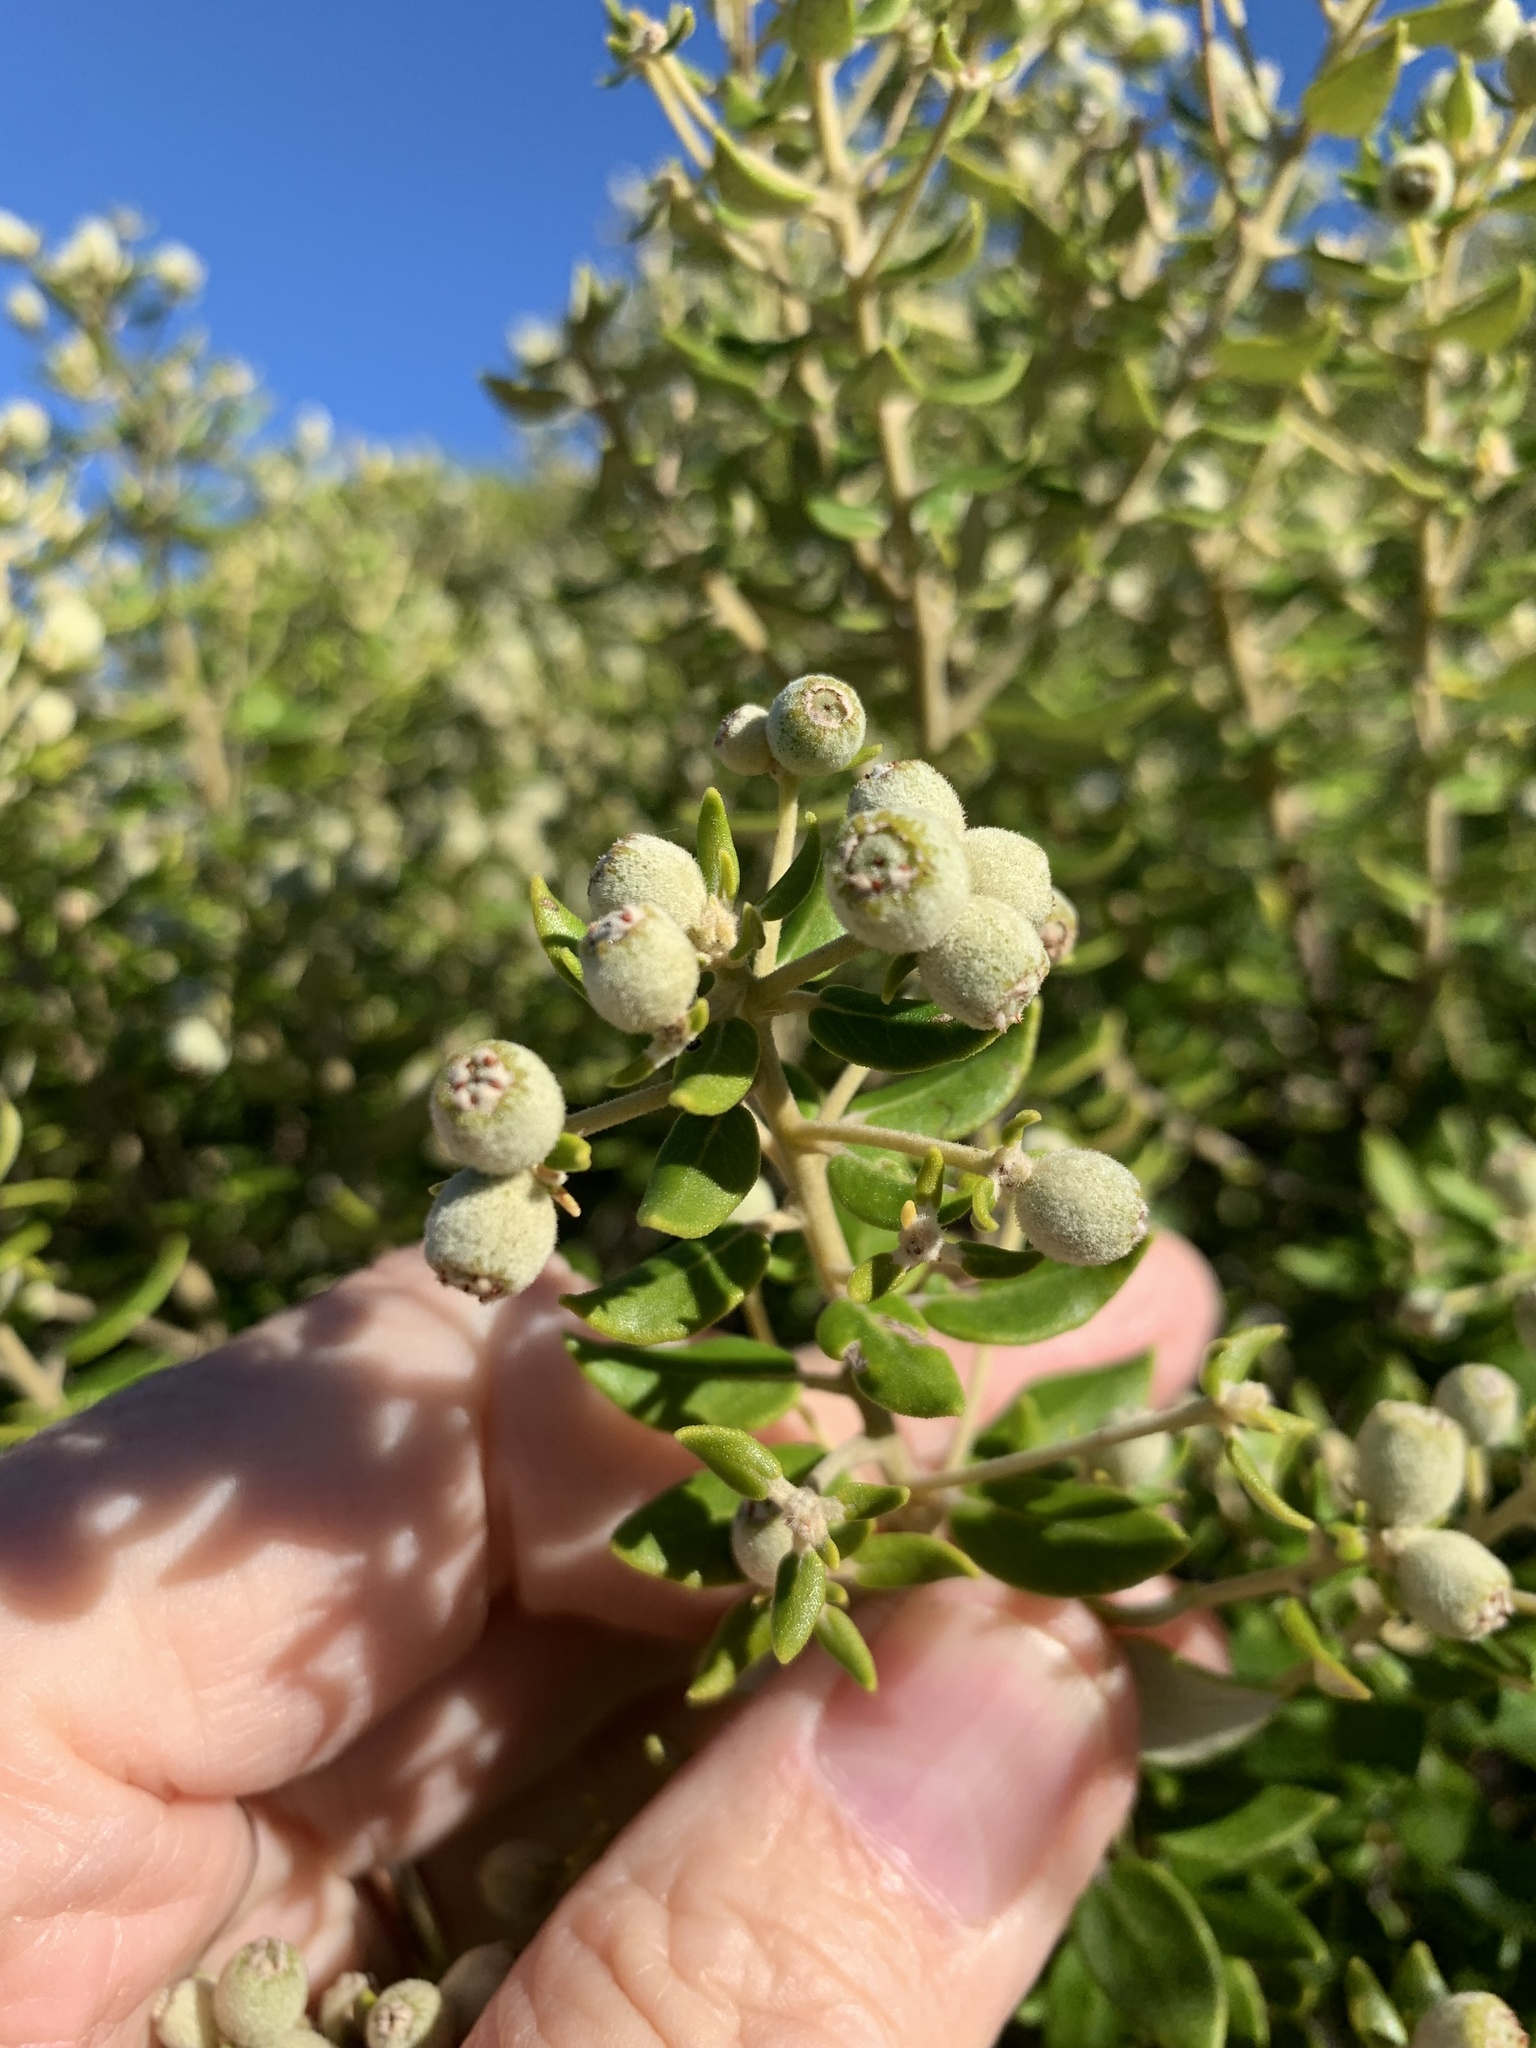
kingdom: Plantae
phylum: Tracheophyta
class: Magnoliopsida
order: Rosales
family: Rhamnaceae
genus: Phylica
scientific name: Phylica buxifolia
